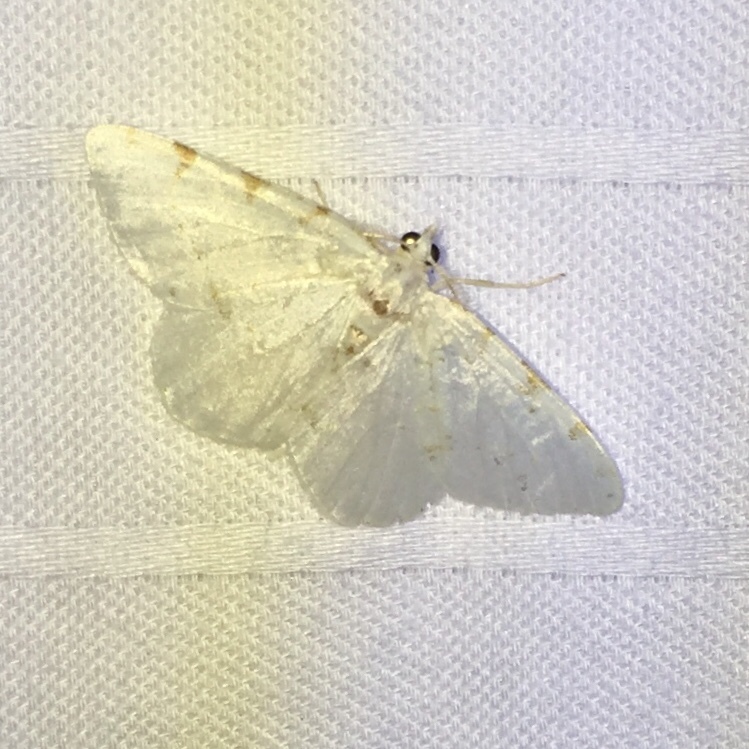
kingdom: Animalia
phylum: Arthropoda
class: Insecta
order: Lepidoptera
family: Geometridae
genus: Macaria
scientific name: Macaria pustularia
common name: Lesser maple spanworm moth
